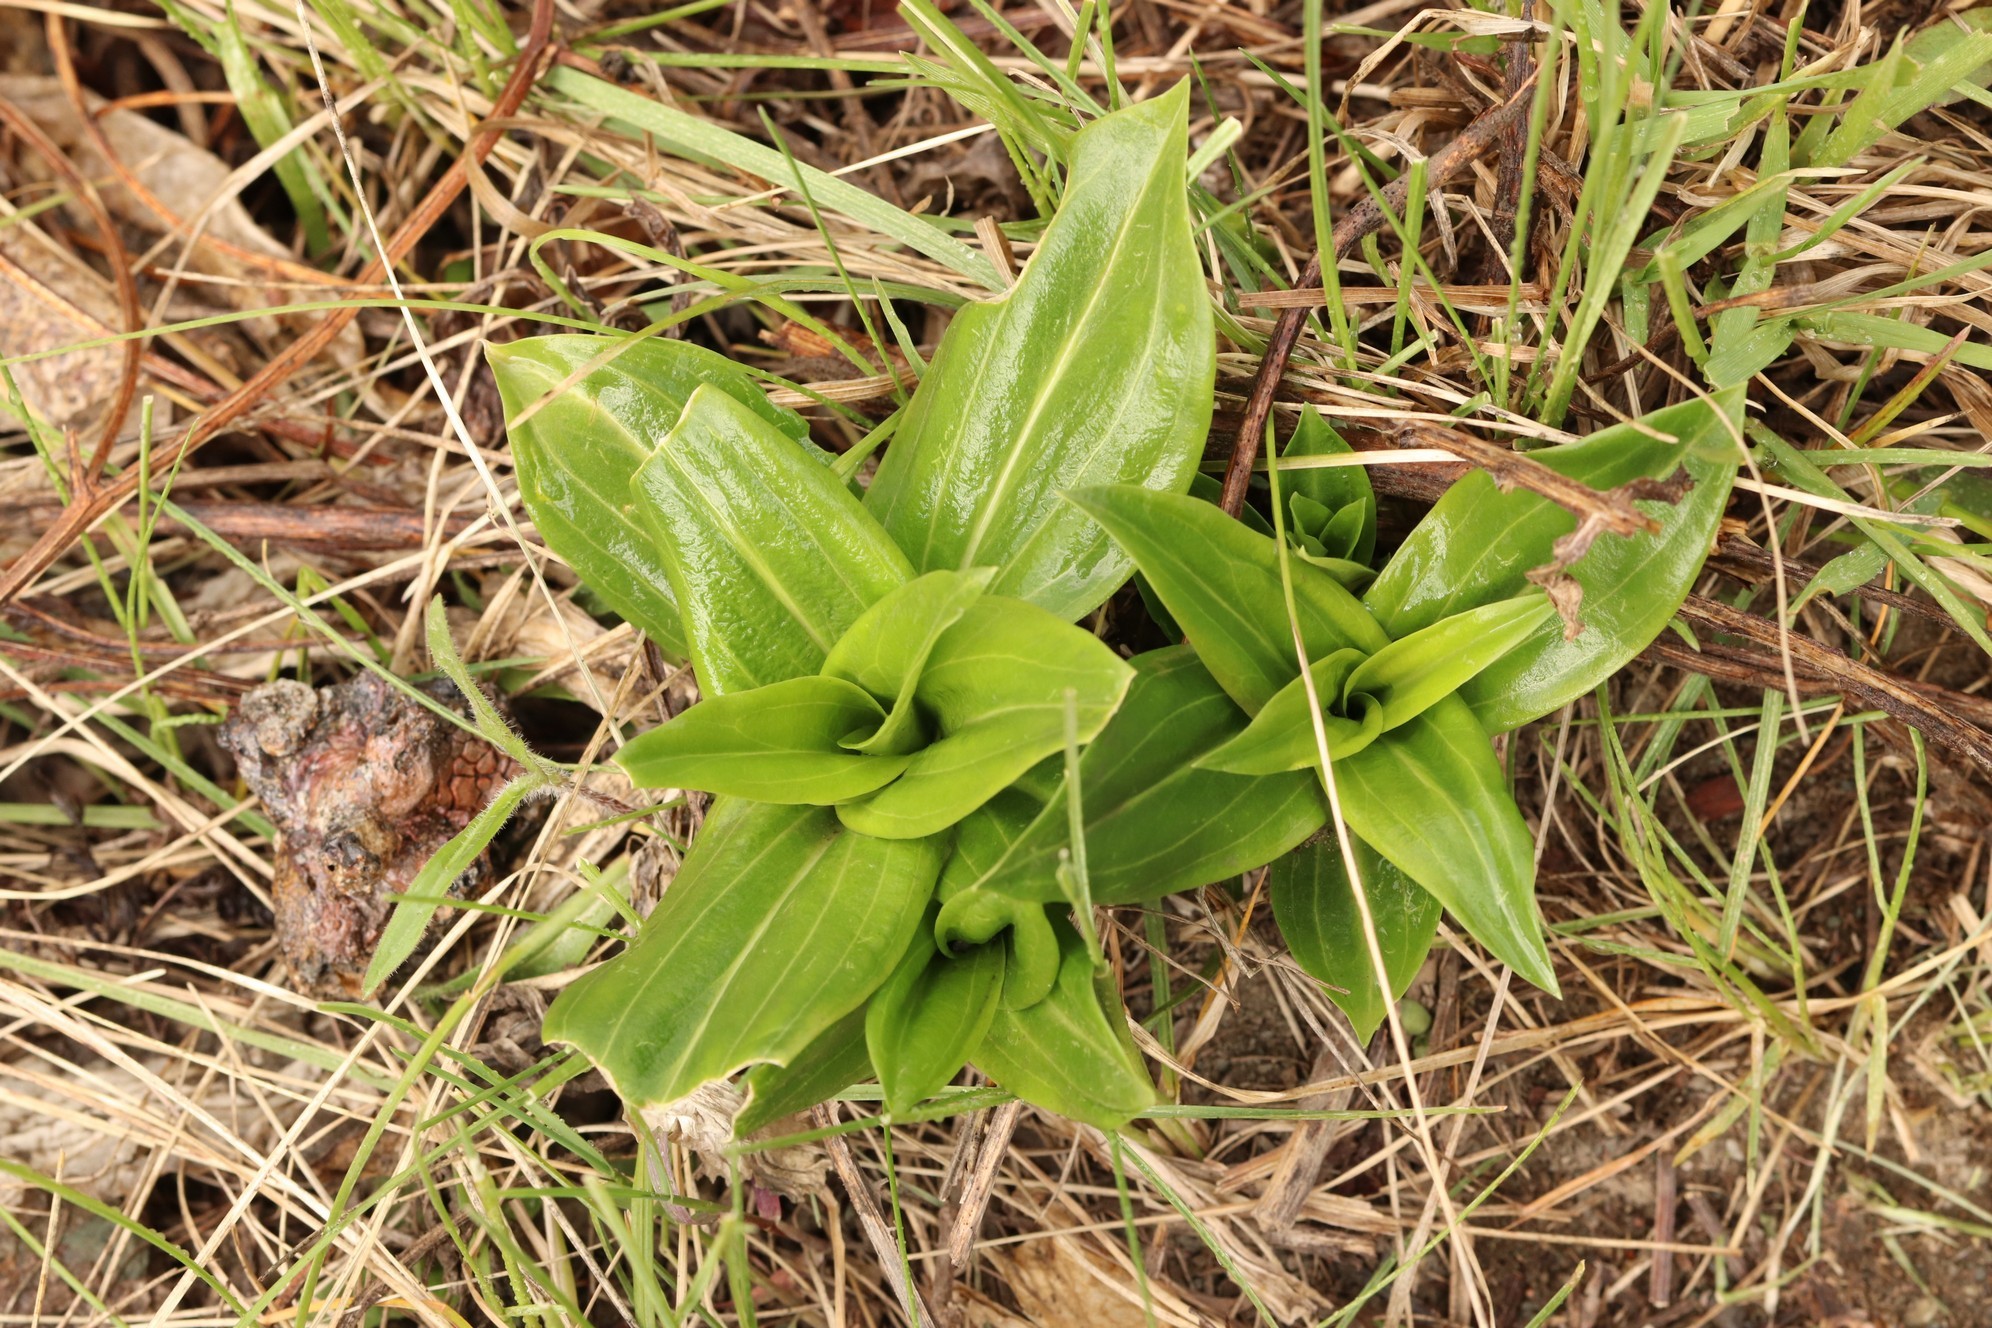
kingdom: Plantae
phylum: Tracheophyta
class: Magnoliopsida
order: Gentianales
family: Gentianaceae
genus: Gentiana
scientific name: Gentiana macrophylla
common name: Large-leaf gentian
